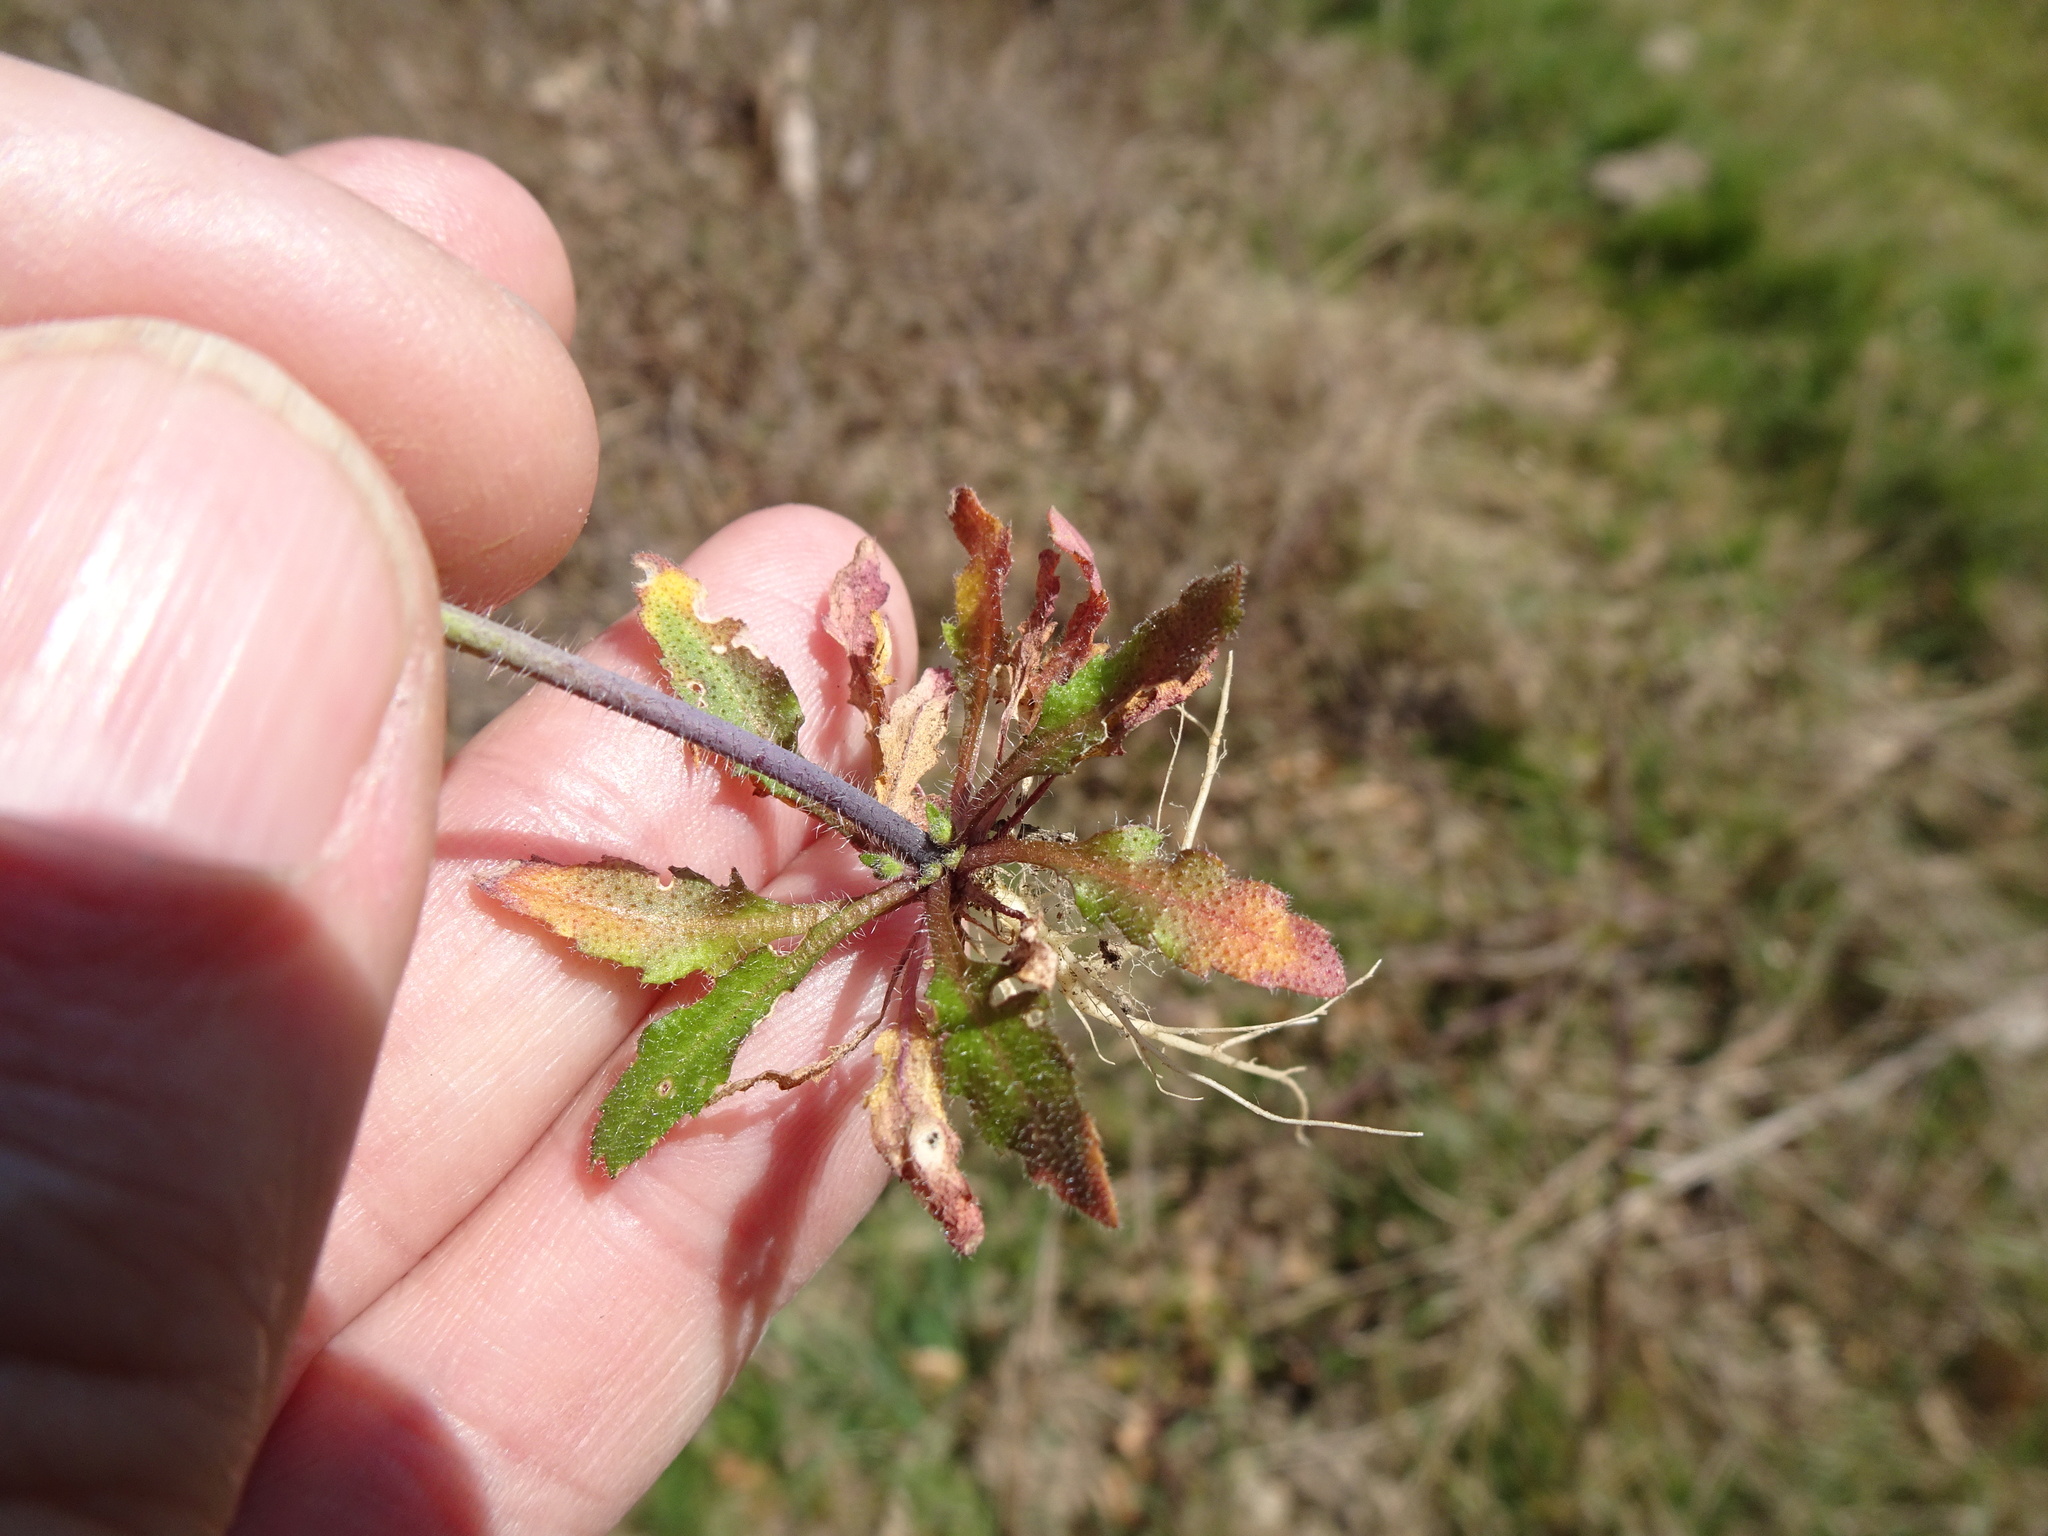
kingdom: Plantae
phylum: Tracheophyta
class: Magnoliopsida
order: Brassicales
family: Brassicaceae
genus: Arabidopsis
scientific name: Arabidopsis thaliana
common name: Thale cress
